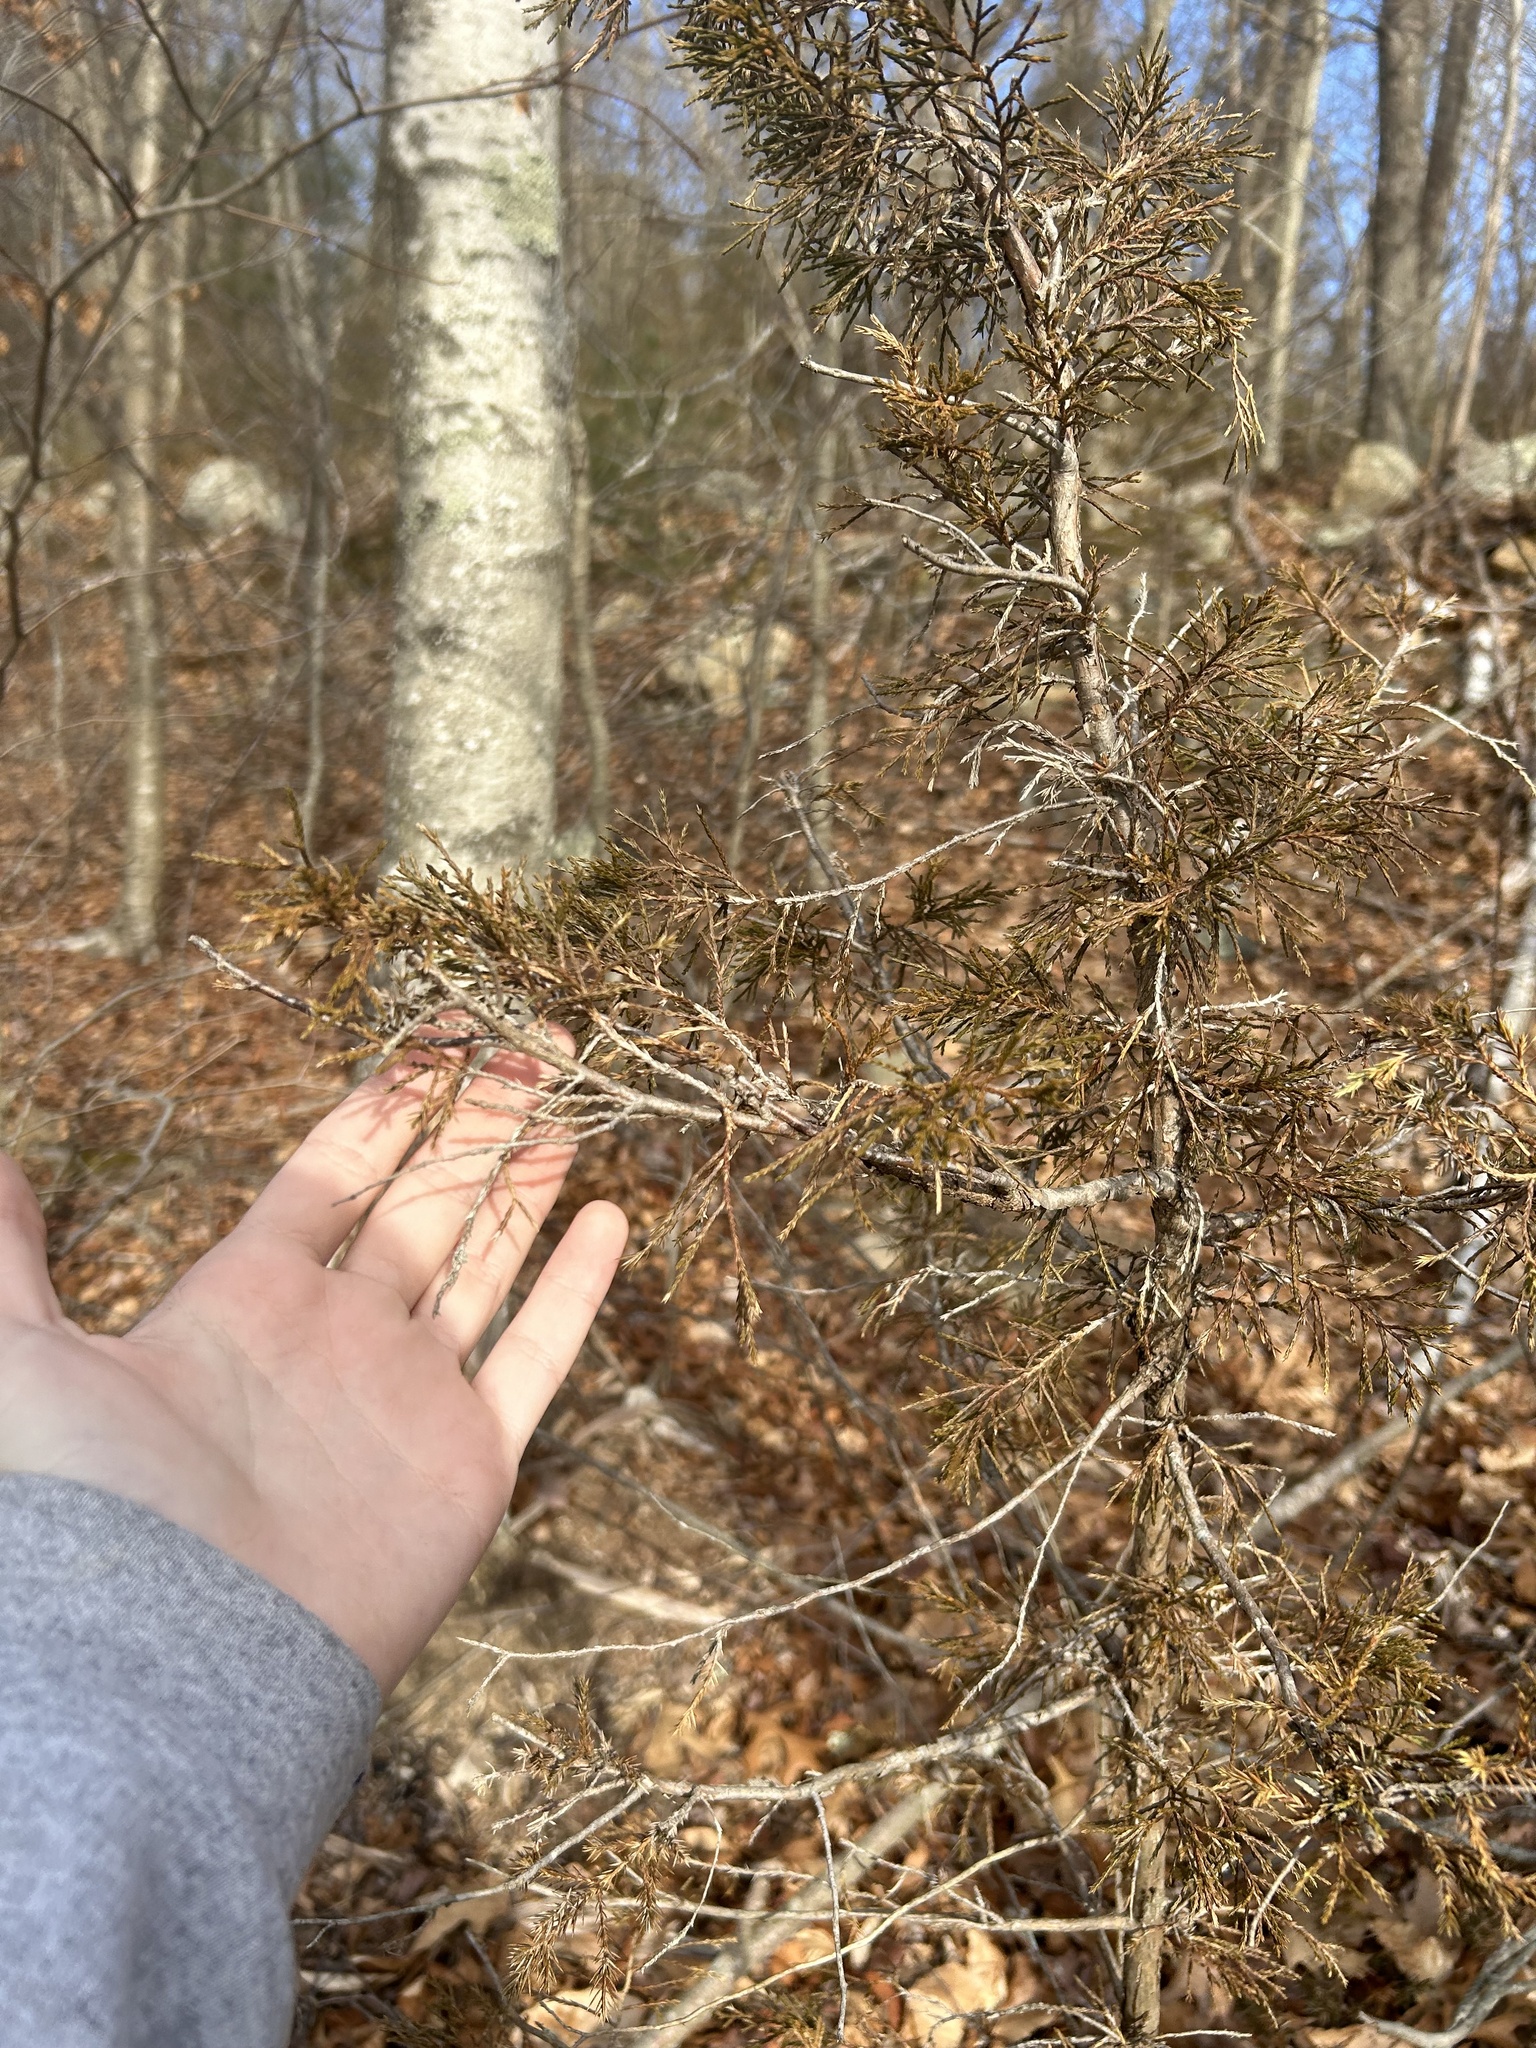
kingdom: Plantae
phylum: Tracheophyta
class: Pinopsida
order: Pinales
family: Cupressaceae
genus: Juniperus
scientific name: Juniperus virginiana
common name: Red juniper
